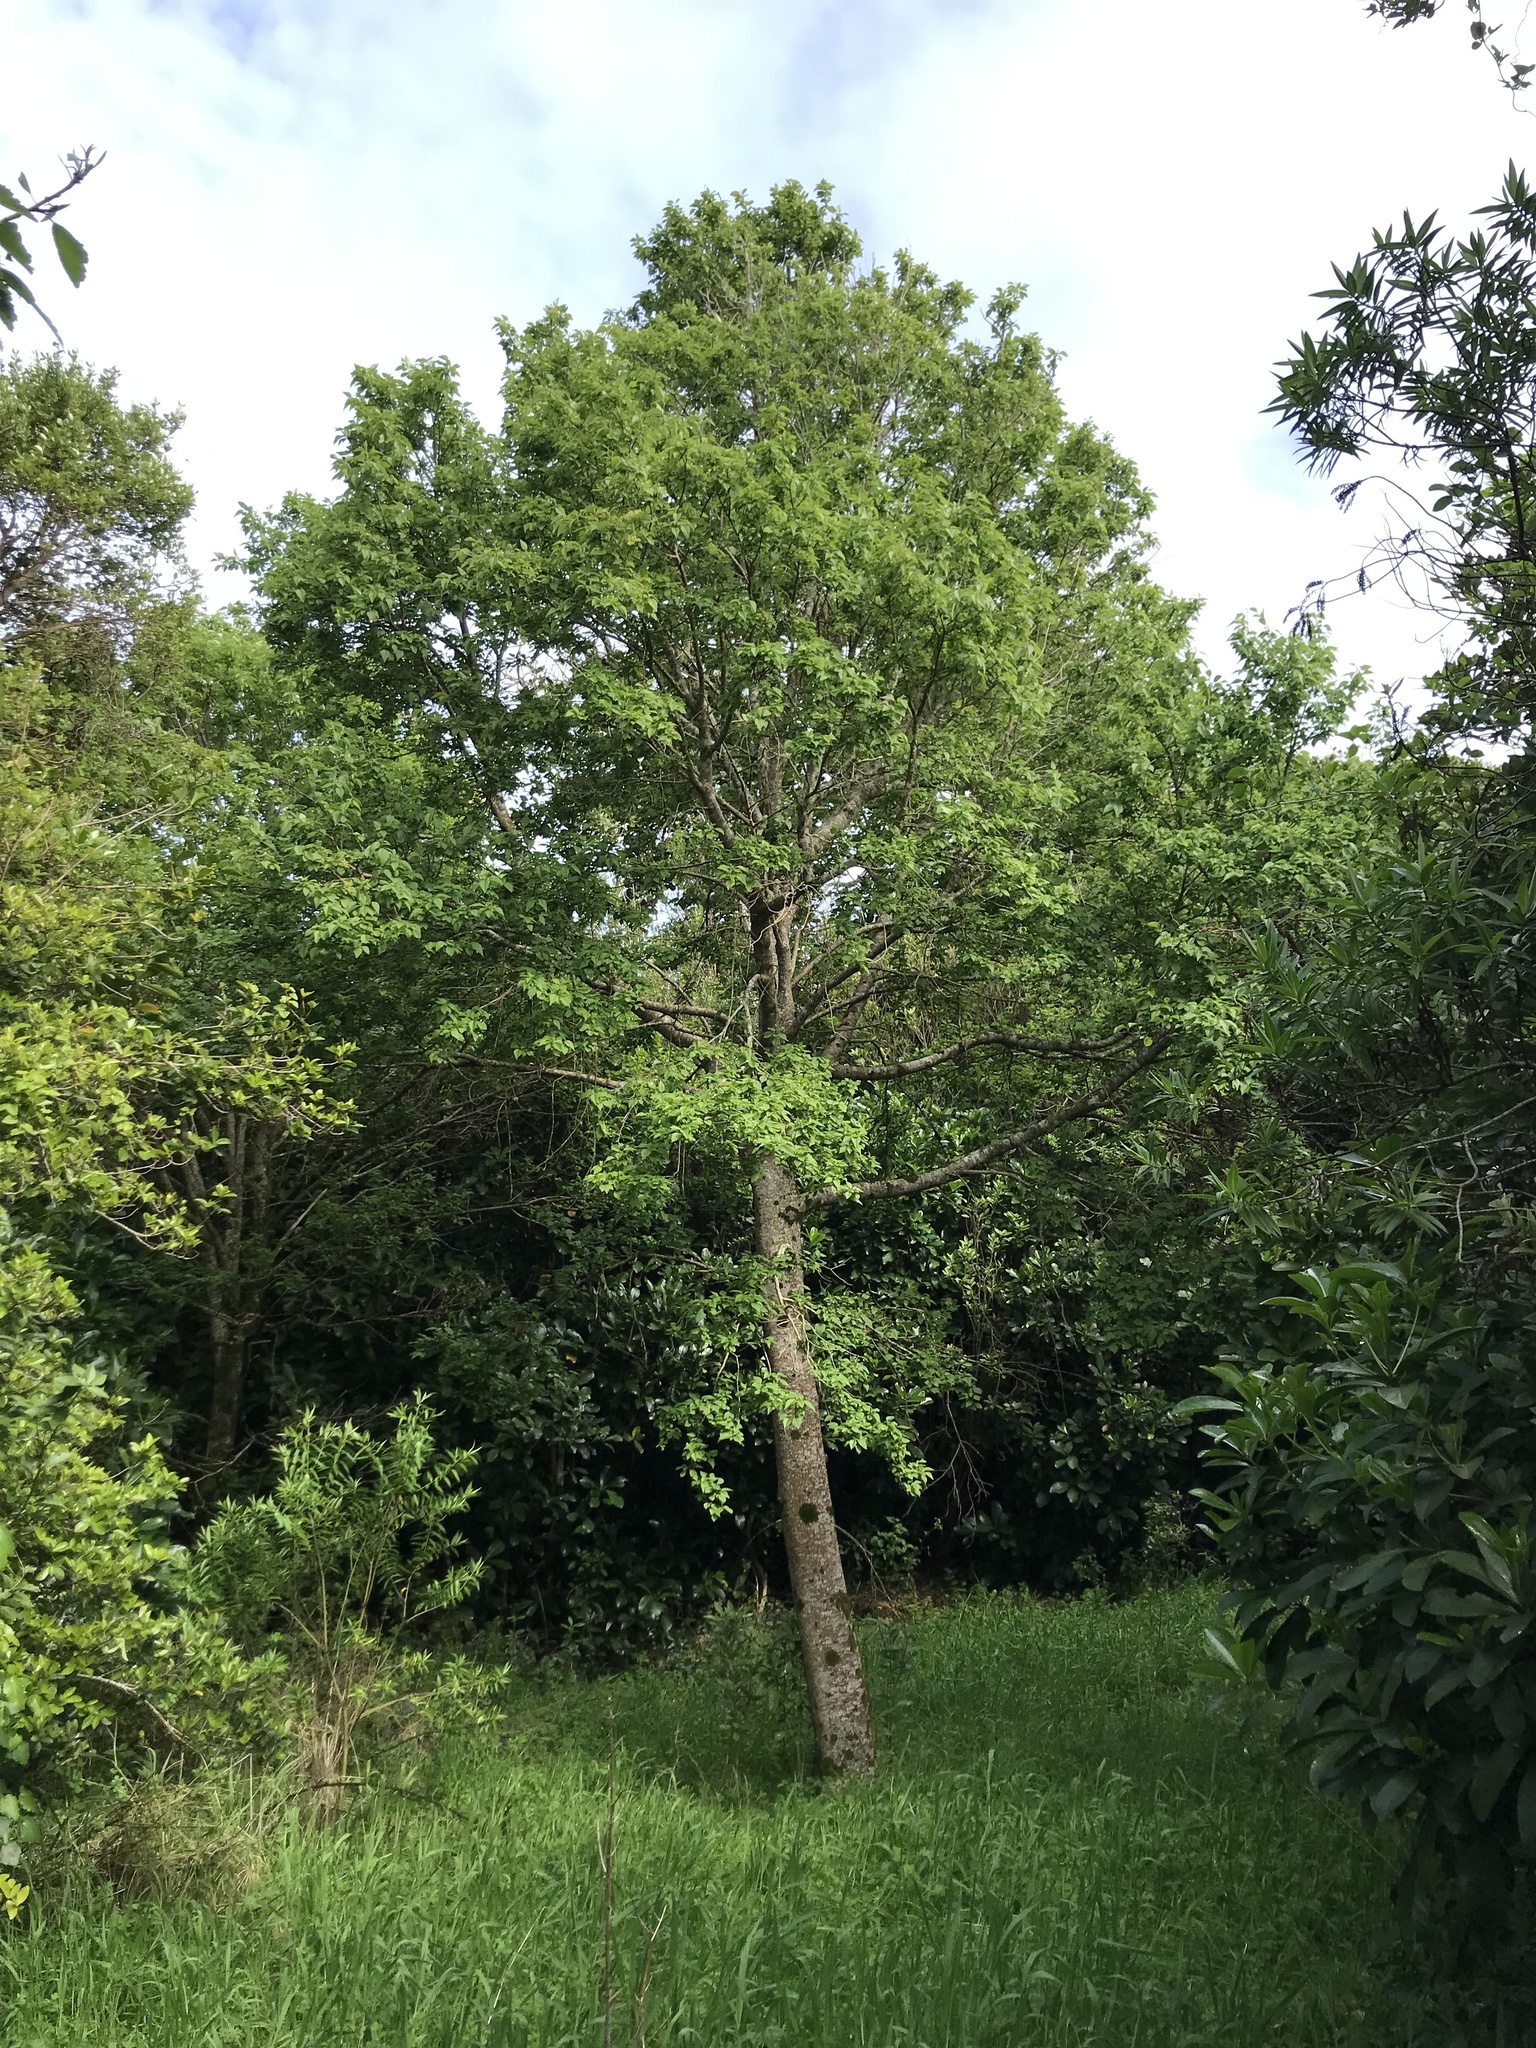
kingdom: Plantae
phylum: Tracheophyta
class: Magnoliopsida
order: Malvales
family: Malvaceae
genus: Plagianthus
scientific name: Plagianthus regius
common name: Manatu
